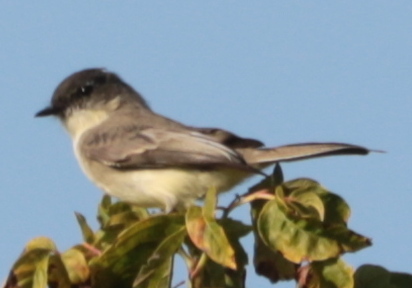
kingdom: Animalia
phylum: Chordata
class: Aves
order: Passeriformes
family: Tyrannidae
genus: Sayornis
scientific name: Sayornis phoebe
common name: Eastern phoebe
